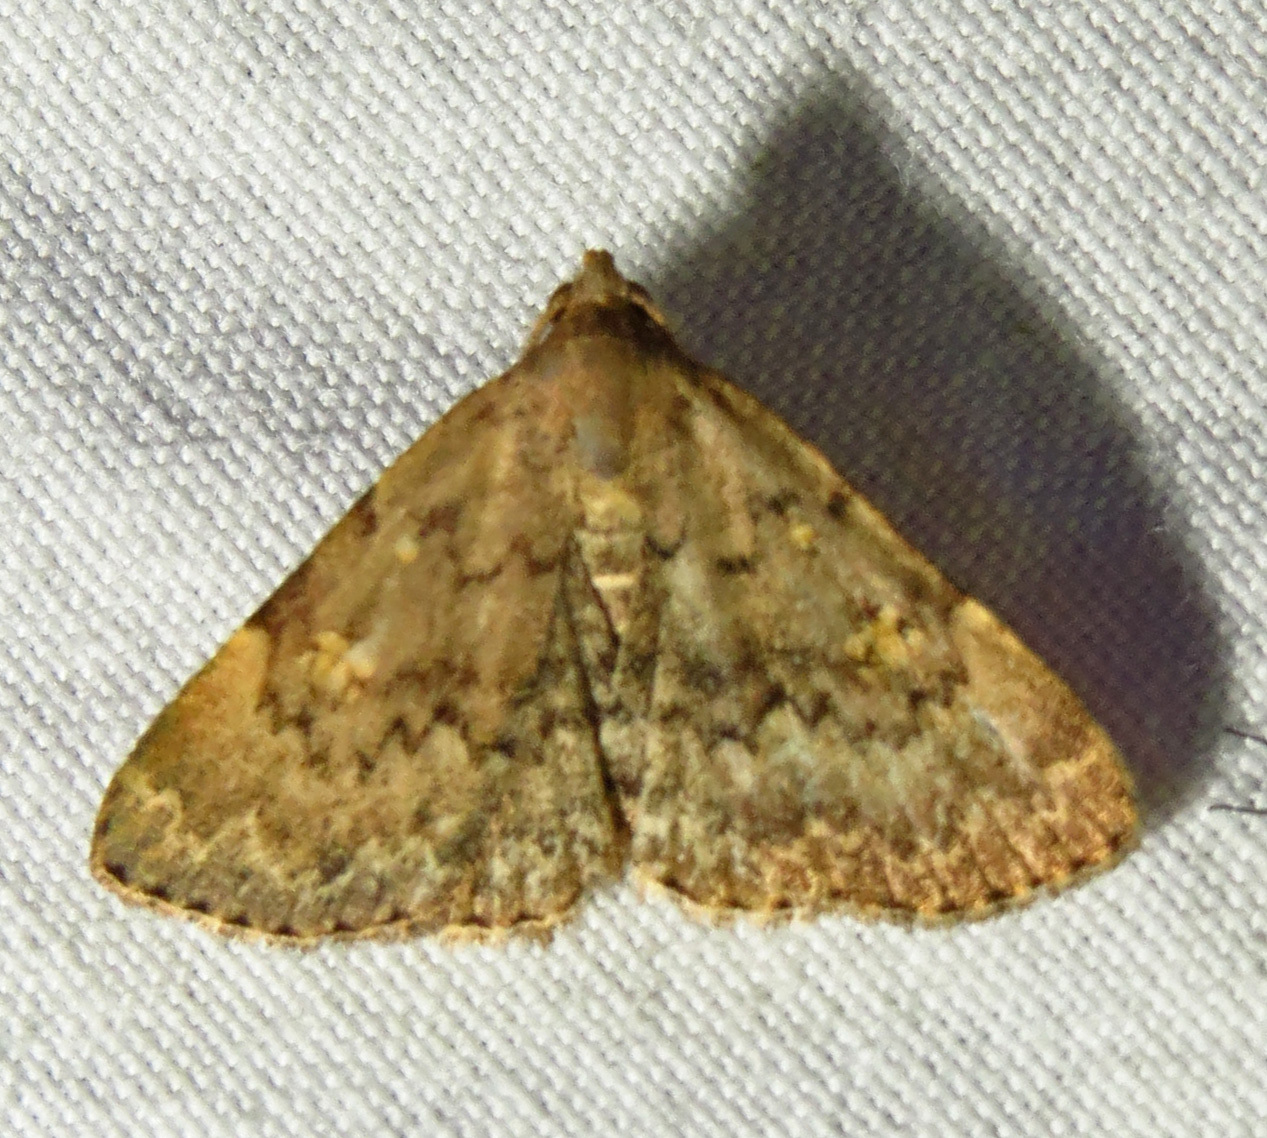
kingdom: Animalia
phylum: Arthropoda
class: Insecta
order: Lepidoptera
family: Erebidae
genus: Idia
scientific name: Idia aemula
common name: Common idia moth
